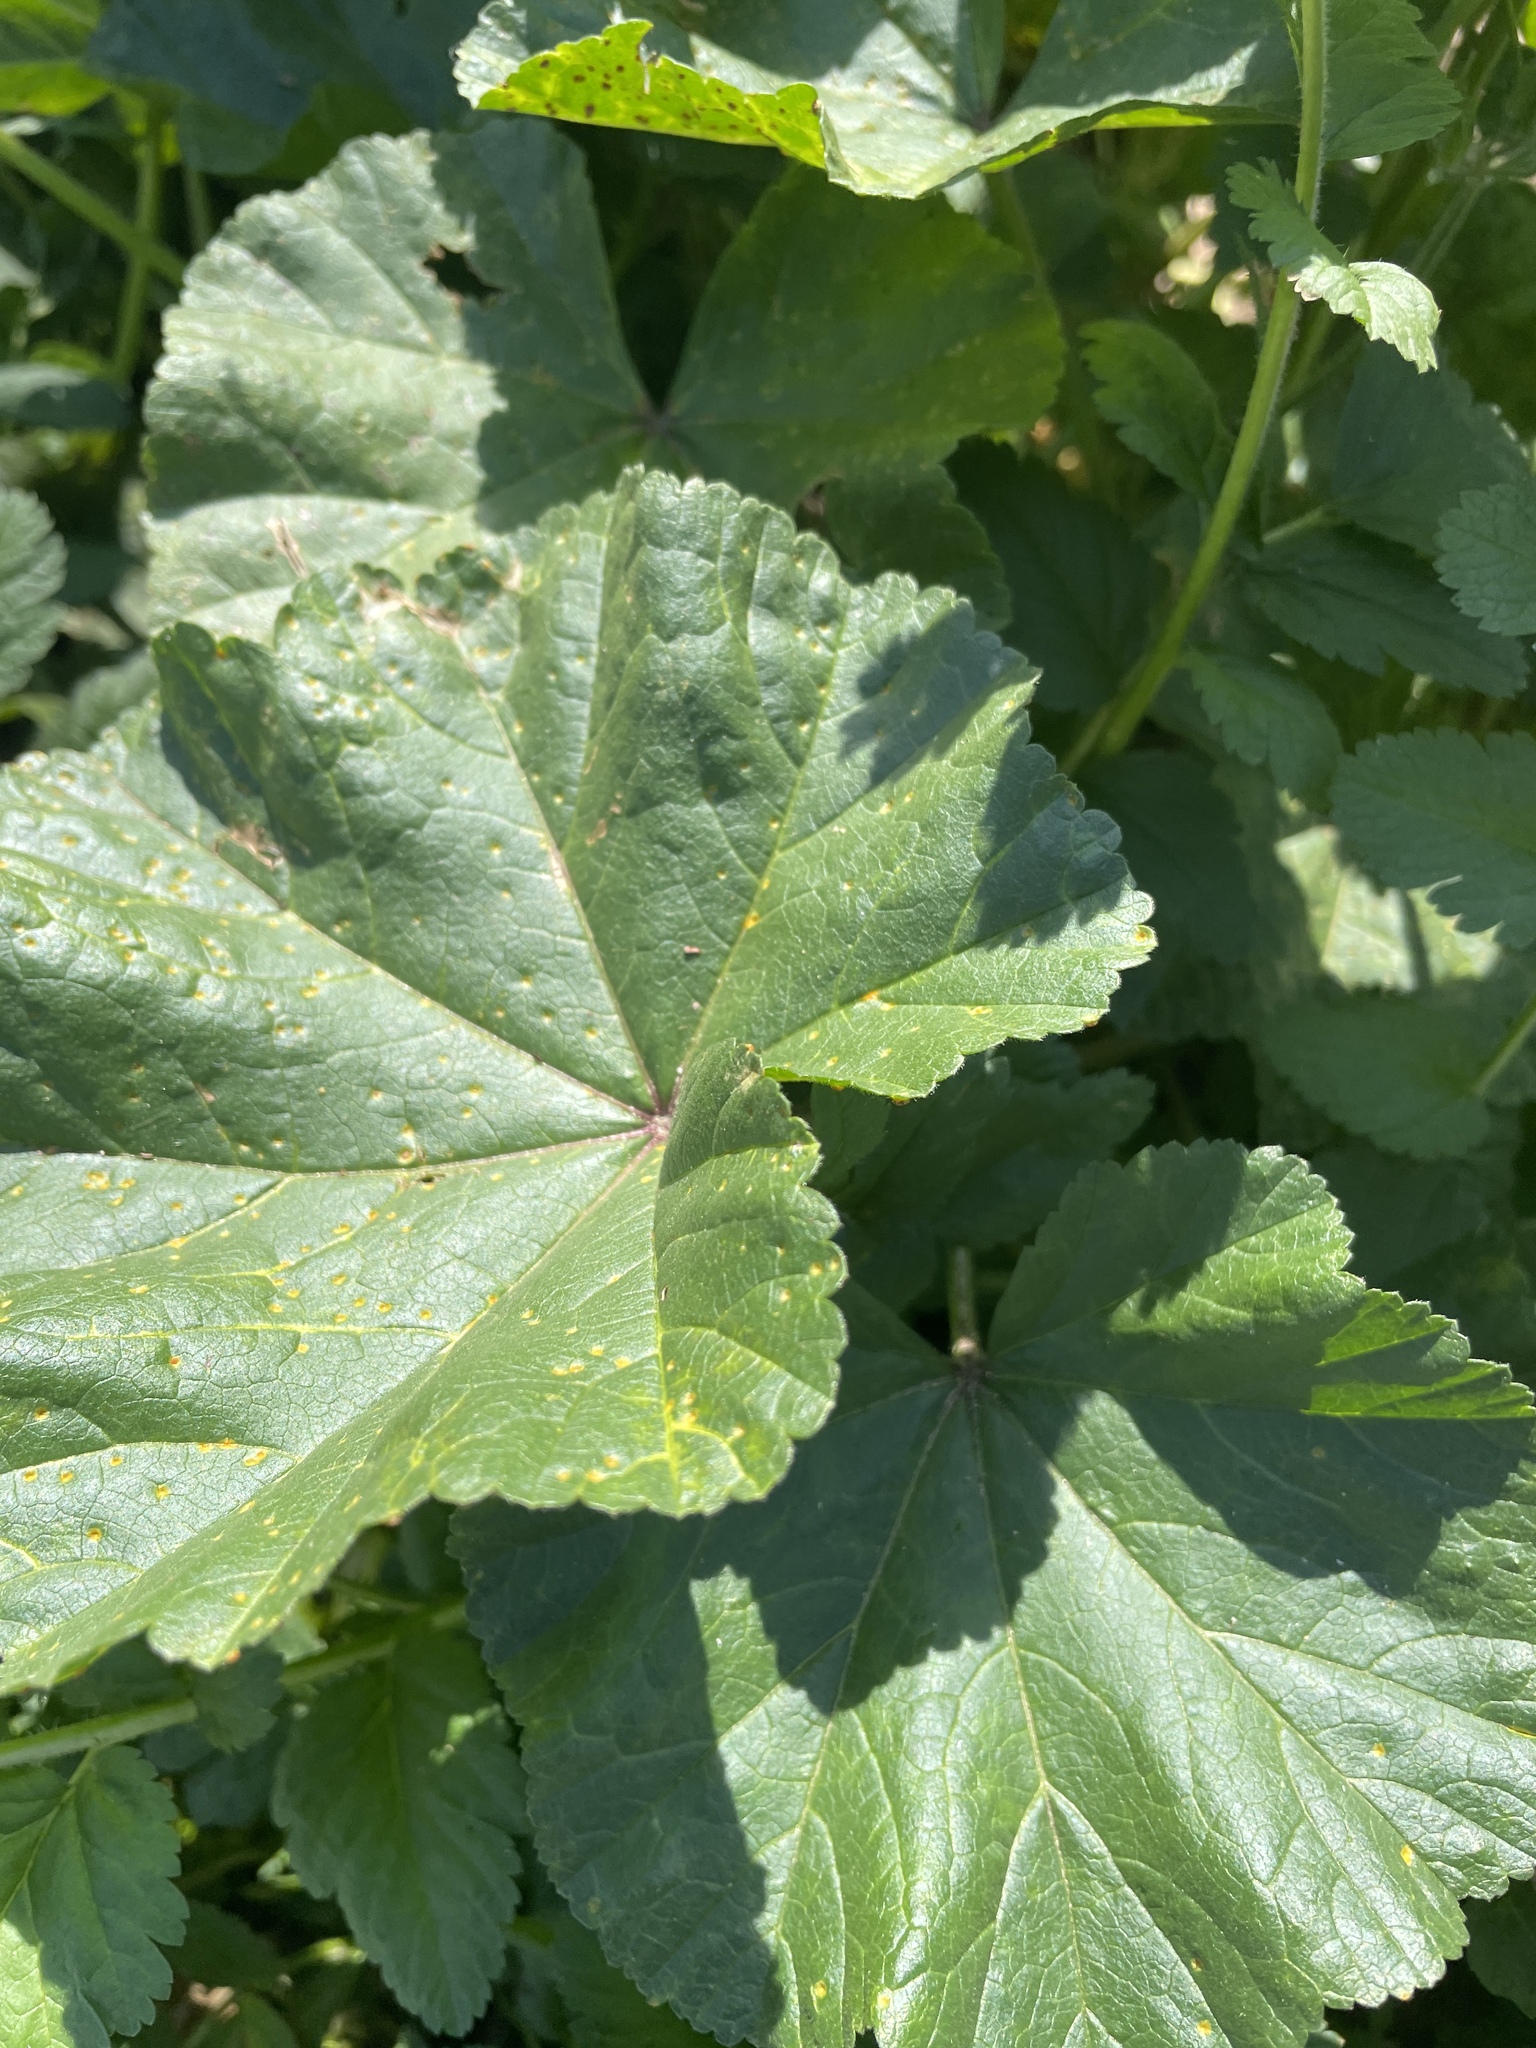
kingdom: Plantae
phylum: Tracheophyta
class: Magnoliopsida
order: Malvales
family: Malvaceae
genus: Malva
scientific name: Malva
